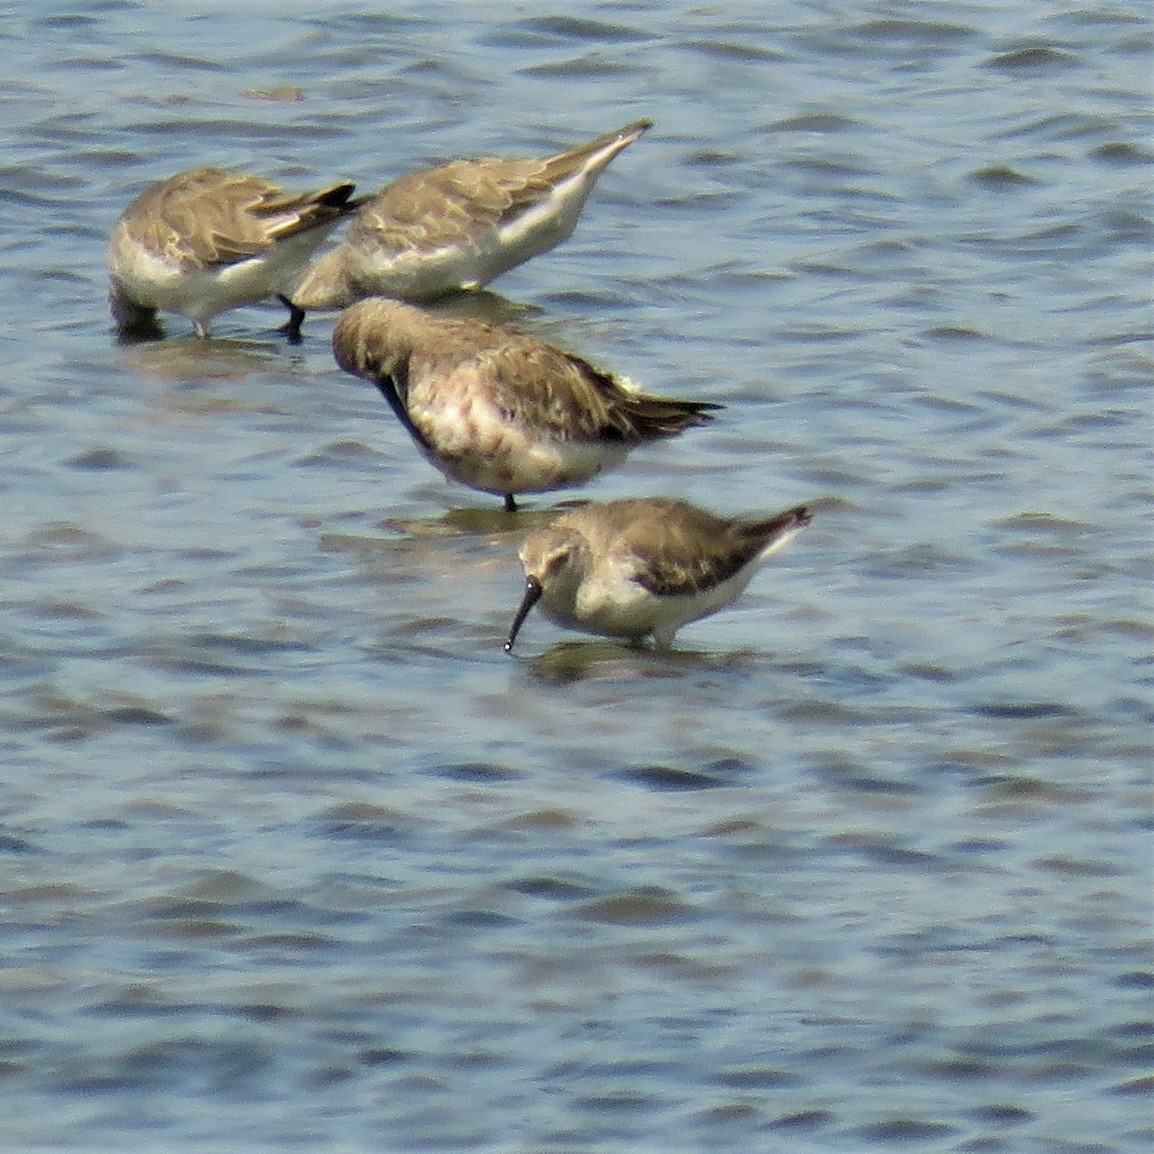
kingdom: Animalia
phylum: Chordata
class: Aves
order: Charadriiformes
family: Scolopacidae
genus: Calidris
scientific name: Calidris ferruginea
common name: Curlew sandpiper
